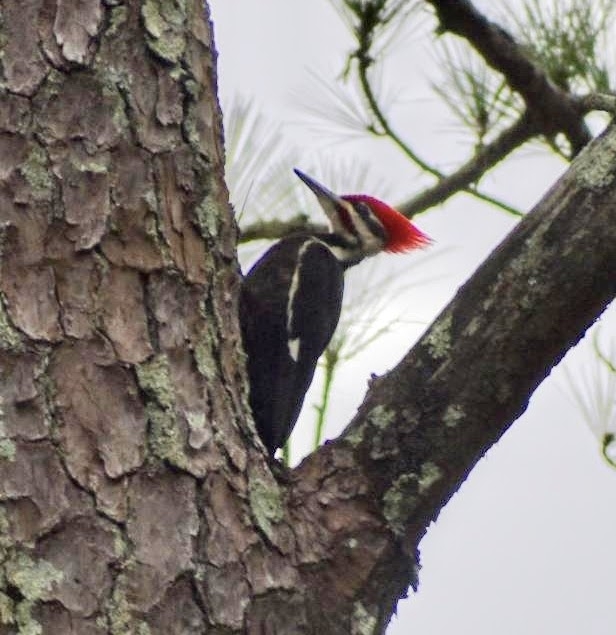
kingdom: Animalia
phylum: Chordata
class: Aves
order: Piciformes
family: Picidae
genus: Dryocopus
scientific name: Dryocopus pileatus
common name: Pileated woodpecker
